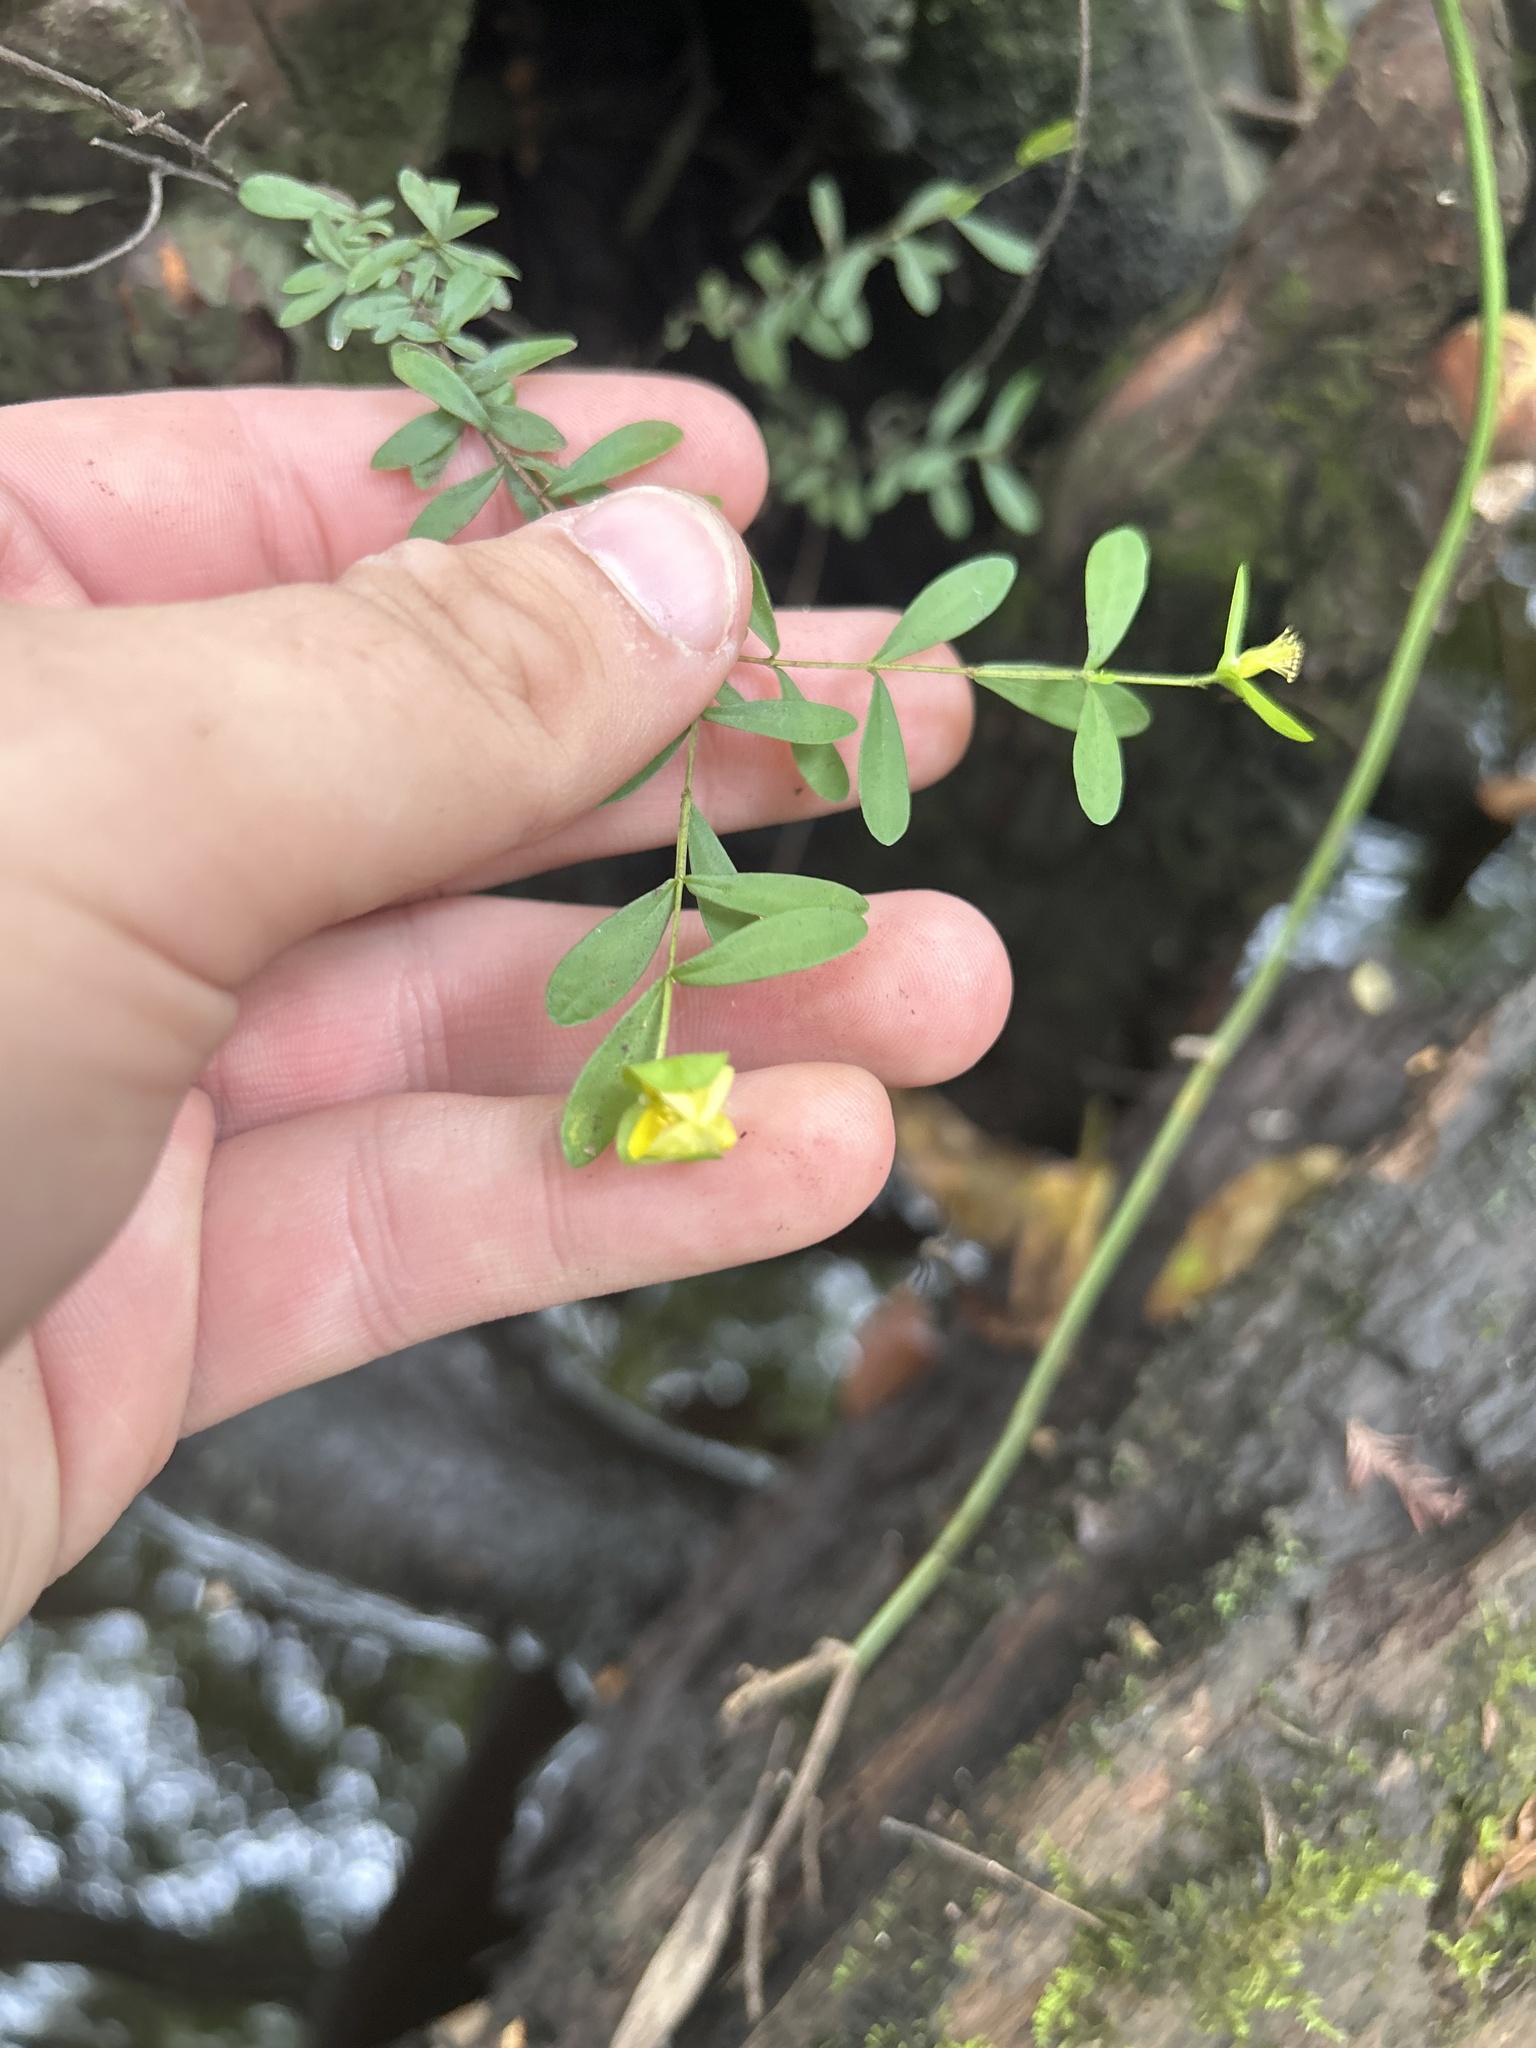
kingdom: Plantae
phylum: Tracheophyta
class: Magnoliopsida
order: Malpighiales
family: Hypericaceae
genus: Hypericum
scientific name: Hypericum hypericoides
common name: St. andrew's cross
